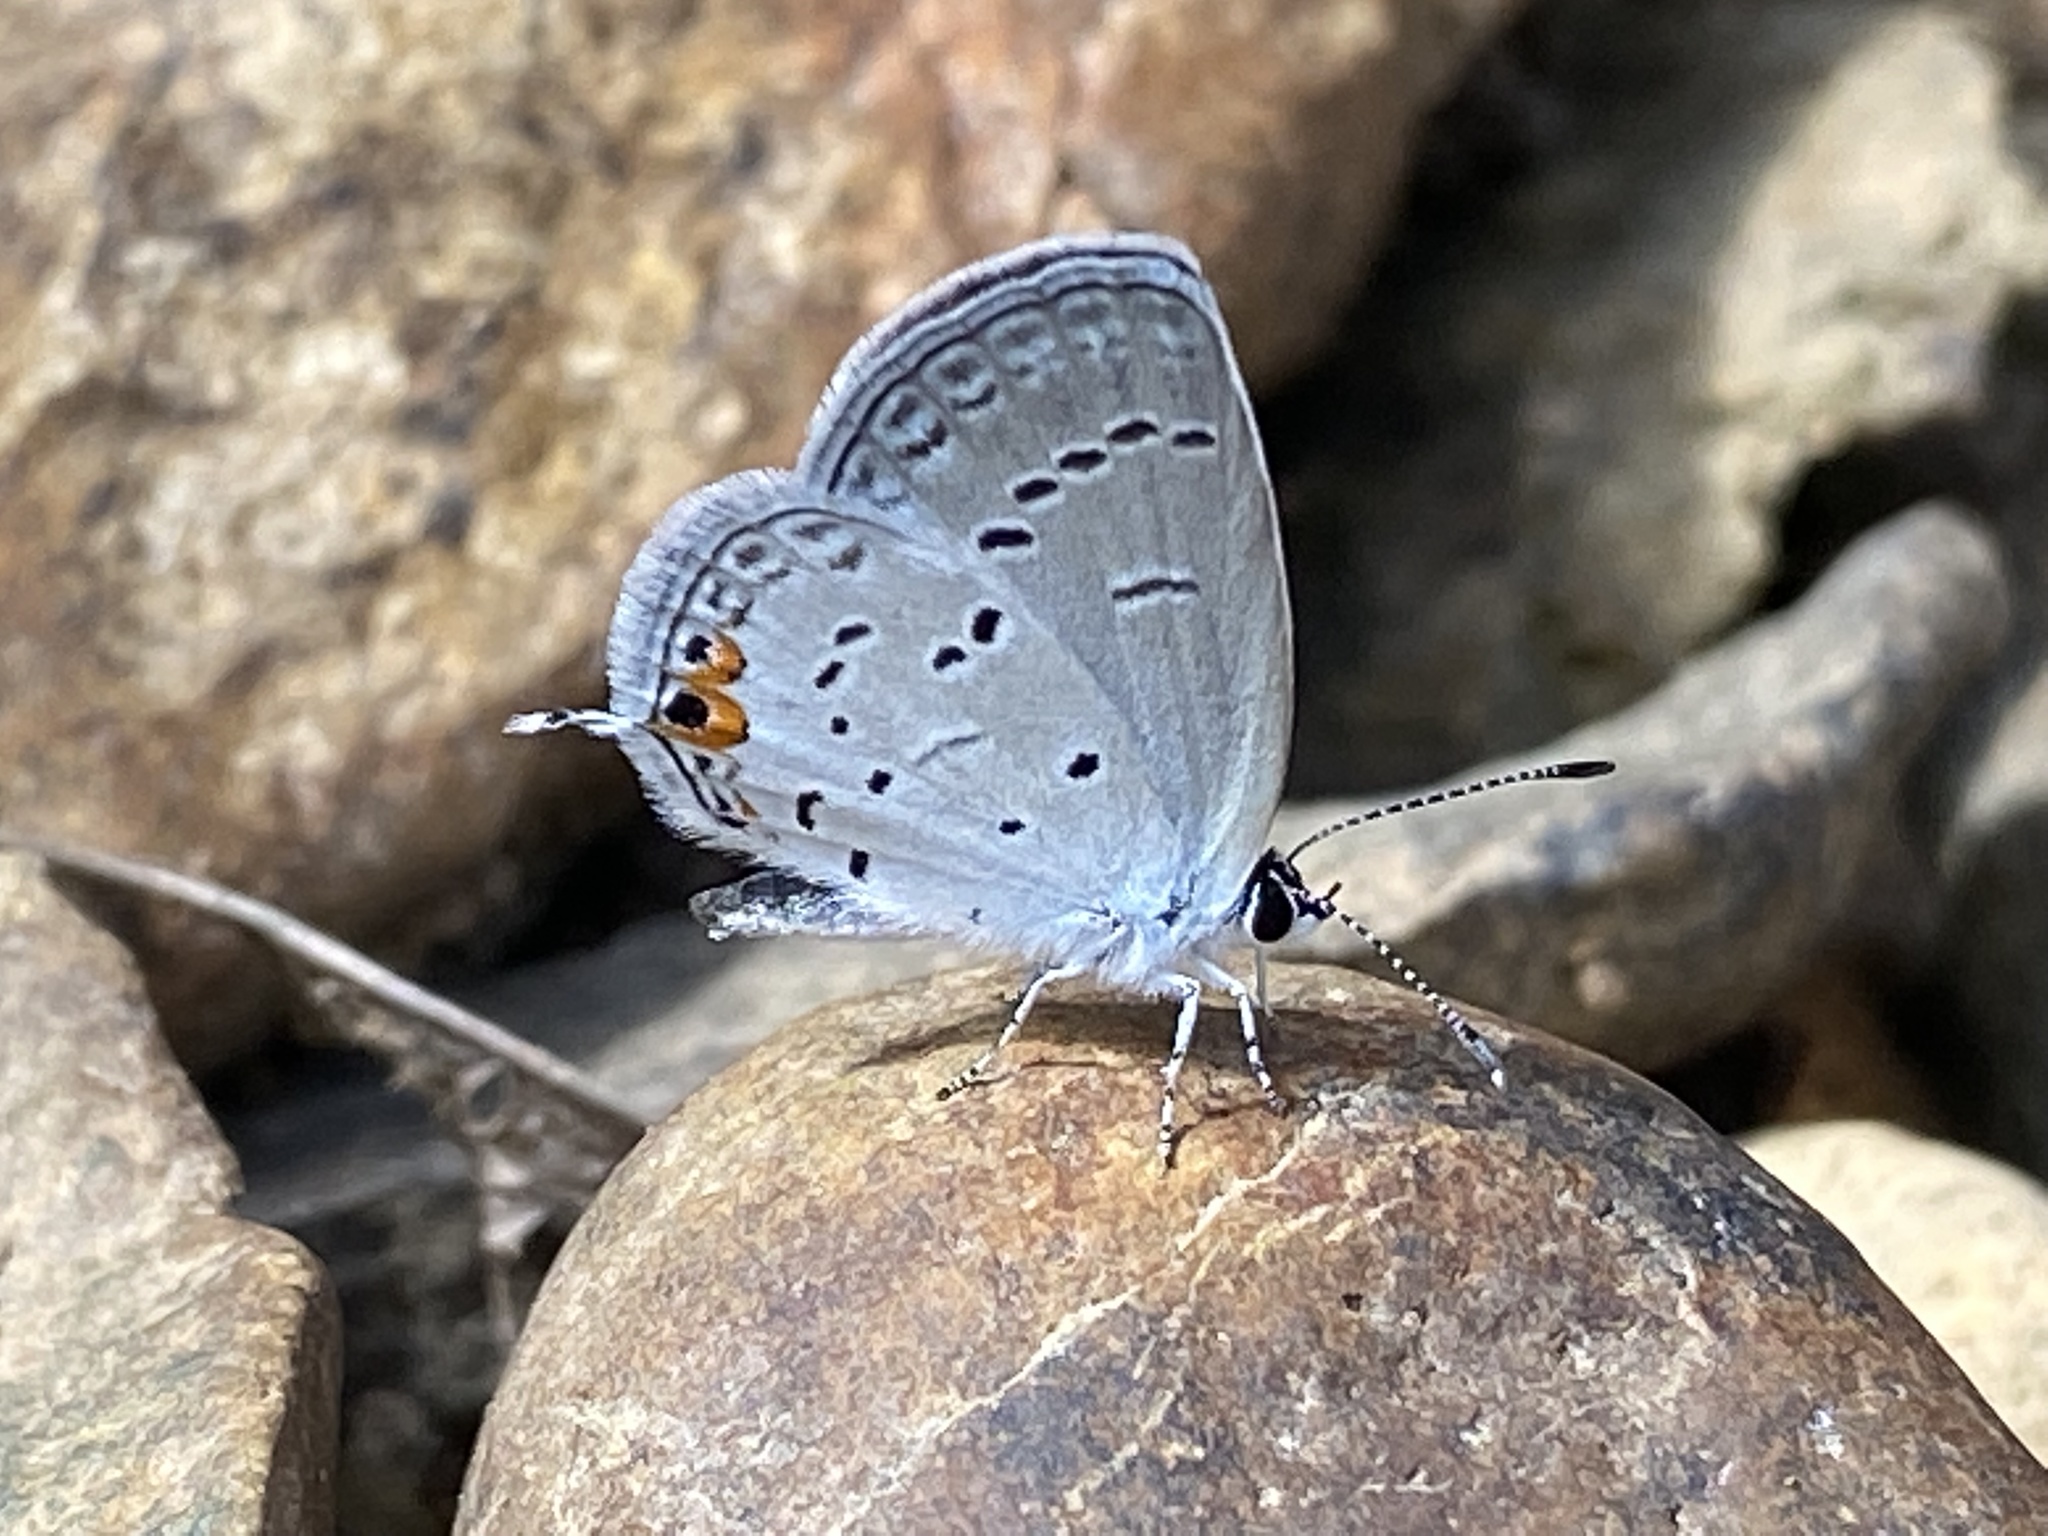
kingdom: Animalia
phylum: Arthropoda
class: Insecta
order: Lepidoptera
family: Lycaenidae
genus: Elkalyce
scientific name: Elkalyce comyntas
